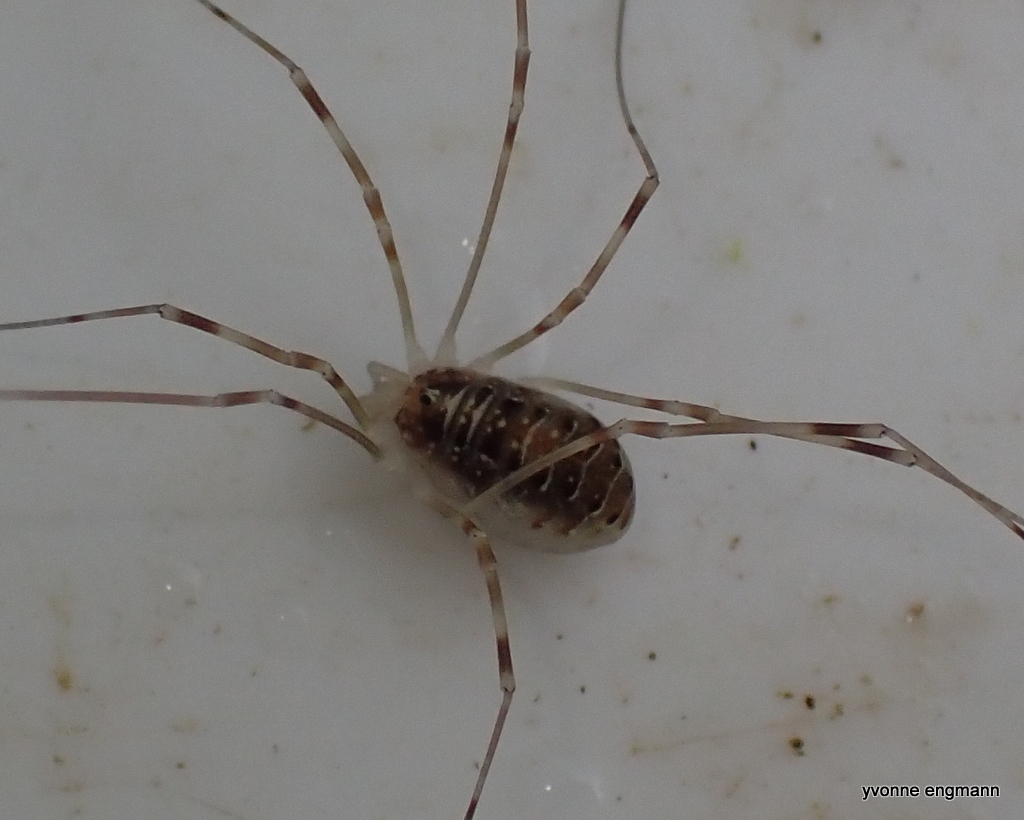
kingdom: Animalia
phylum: Arthropoda
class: Arachnida
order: Opiliones
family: Phalangiidae
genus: Opilio
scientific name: Opilio canestrinii
